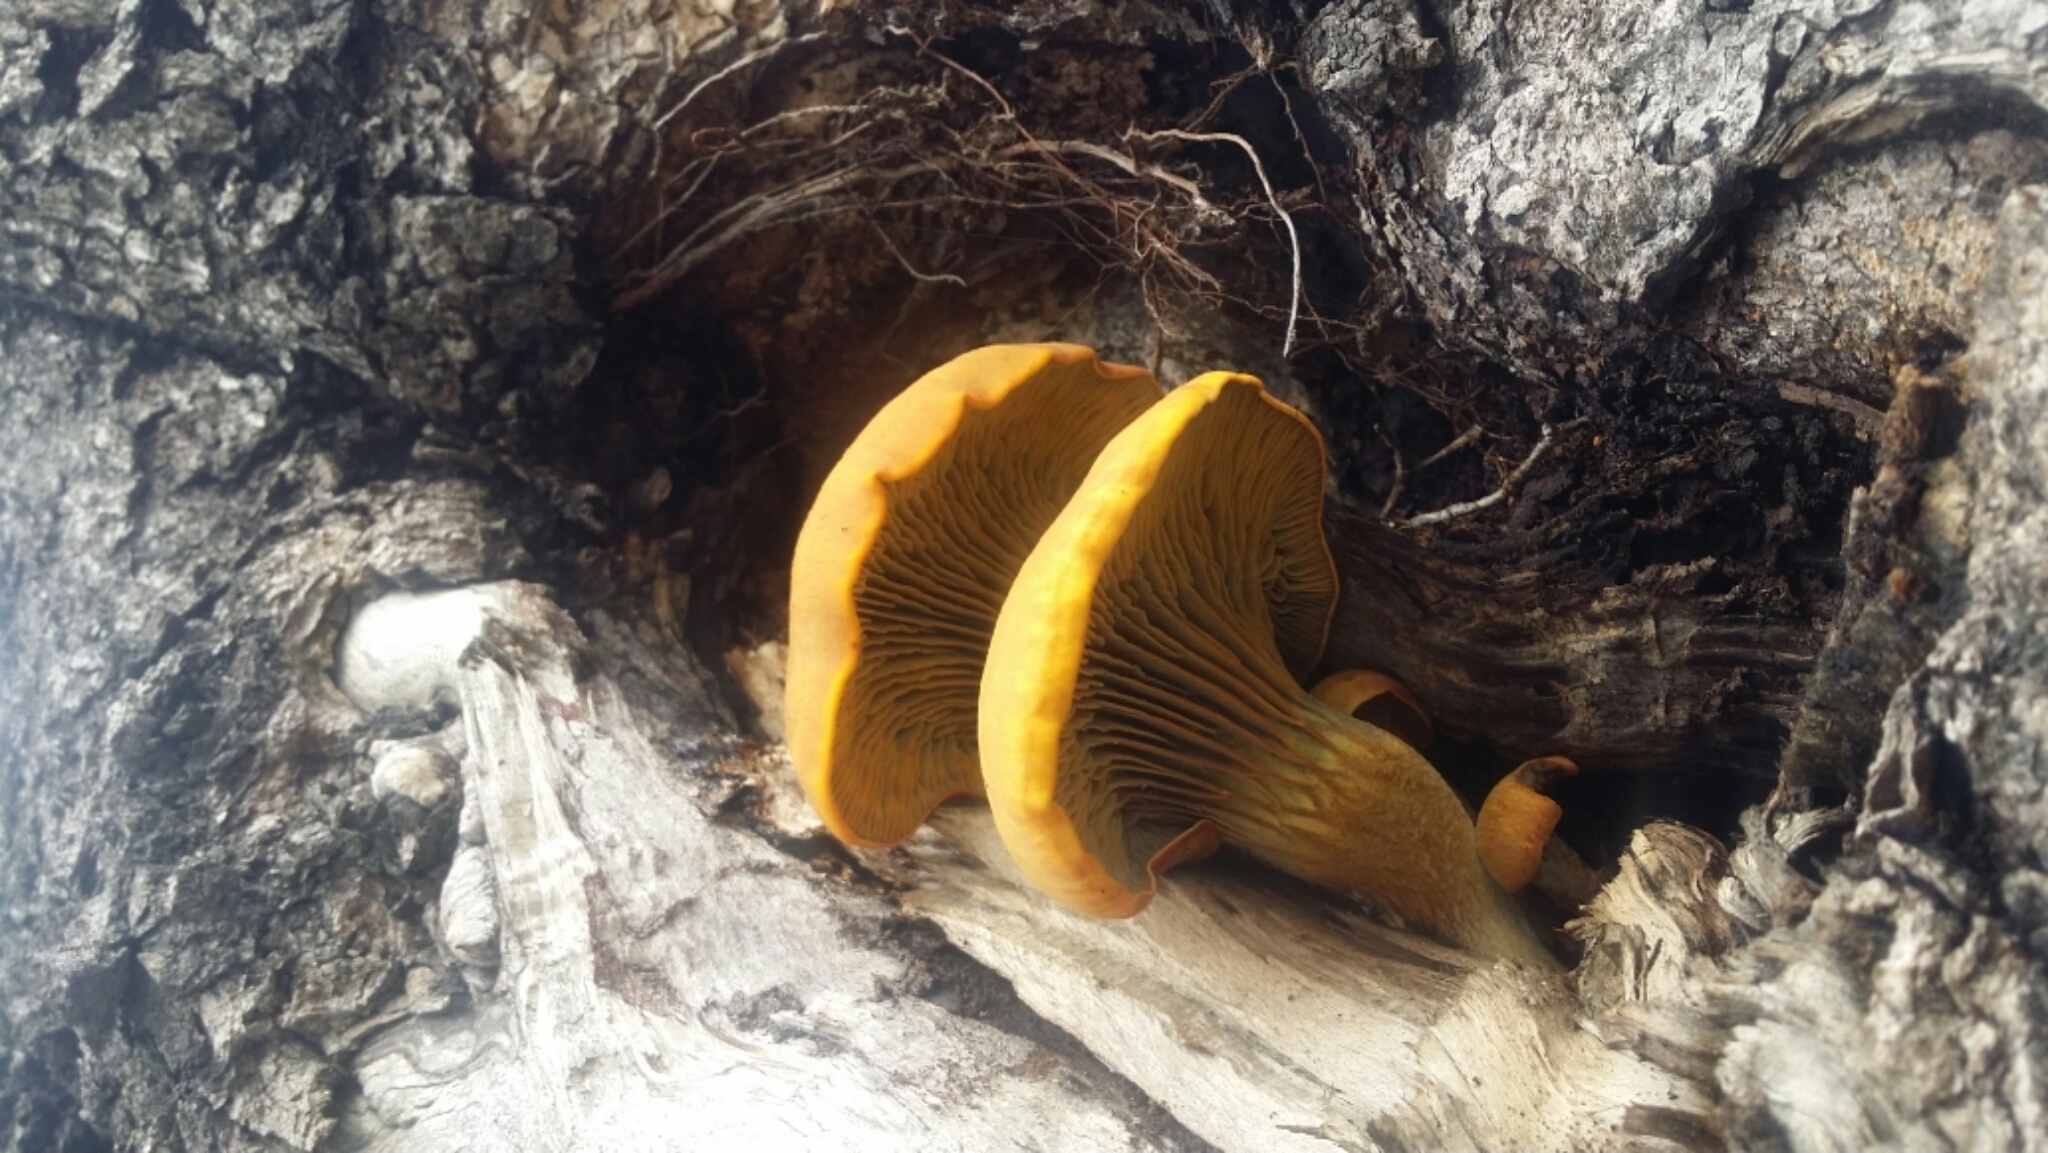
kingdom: Fungi
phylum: Basidiomycota
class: Agaricomycetes
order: Agaricales
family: Omphalotaceae
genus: Omphalotus
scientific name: Omphalotus olivascens
